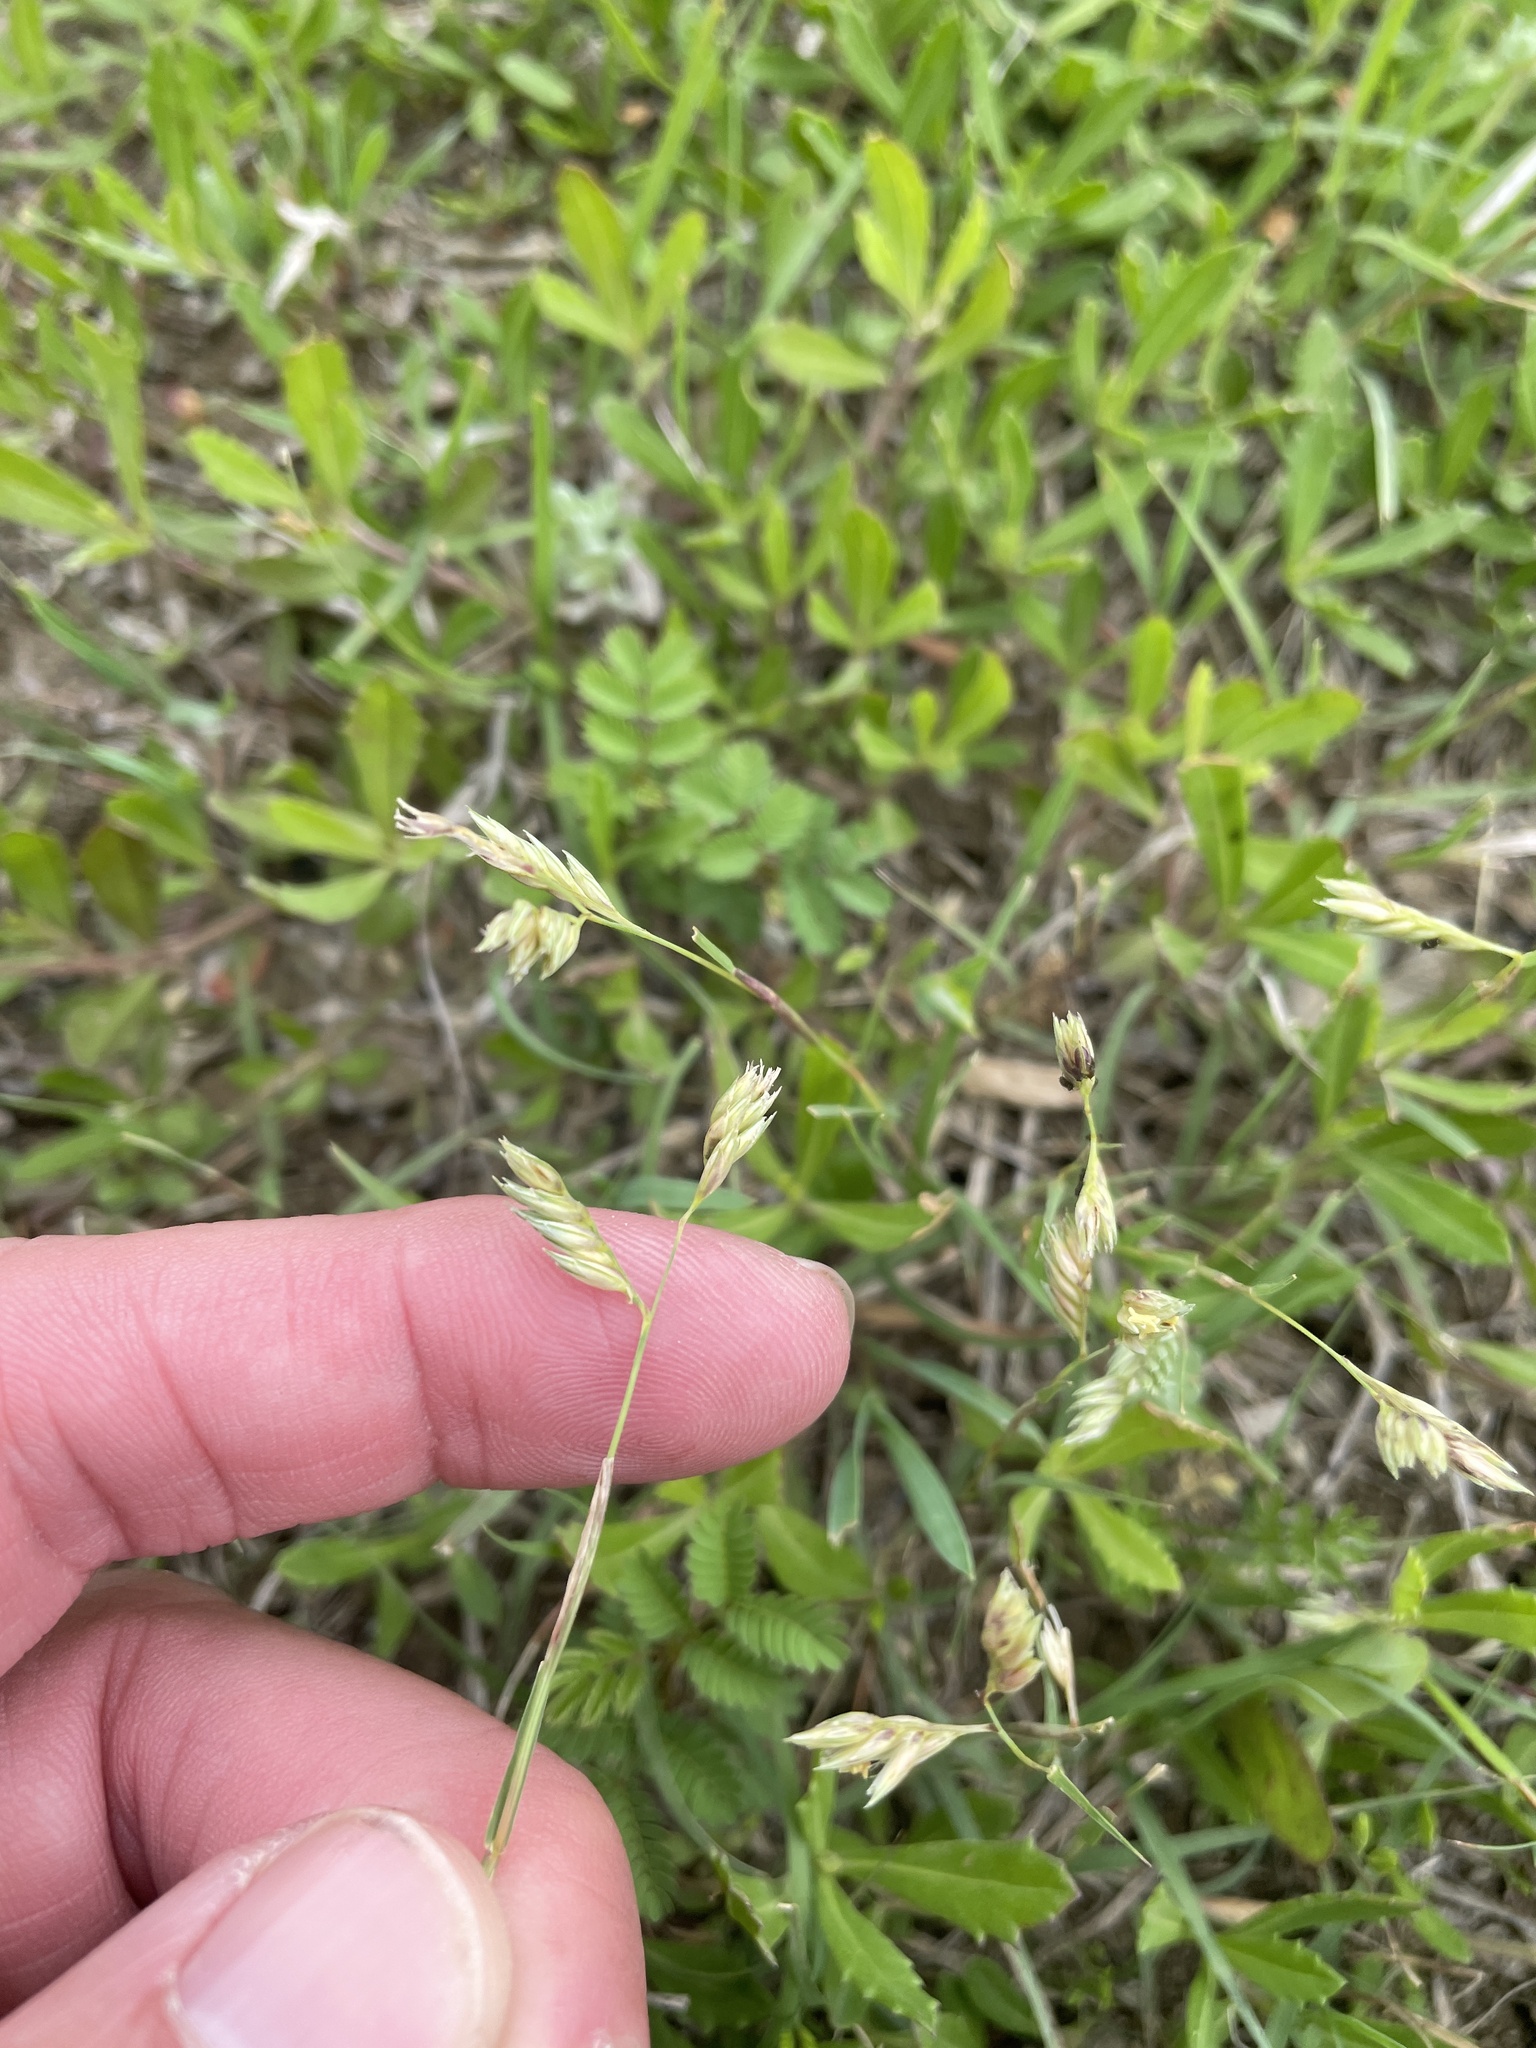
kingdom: Plantae
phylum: Tracheophyta
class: Liliopsida
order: Poales
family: Poaceae
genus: Bouteloua
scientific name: Bouteloua dactyloides
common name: Buffalo grass
